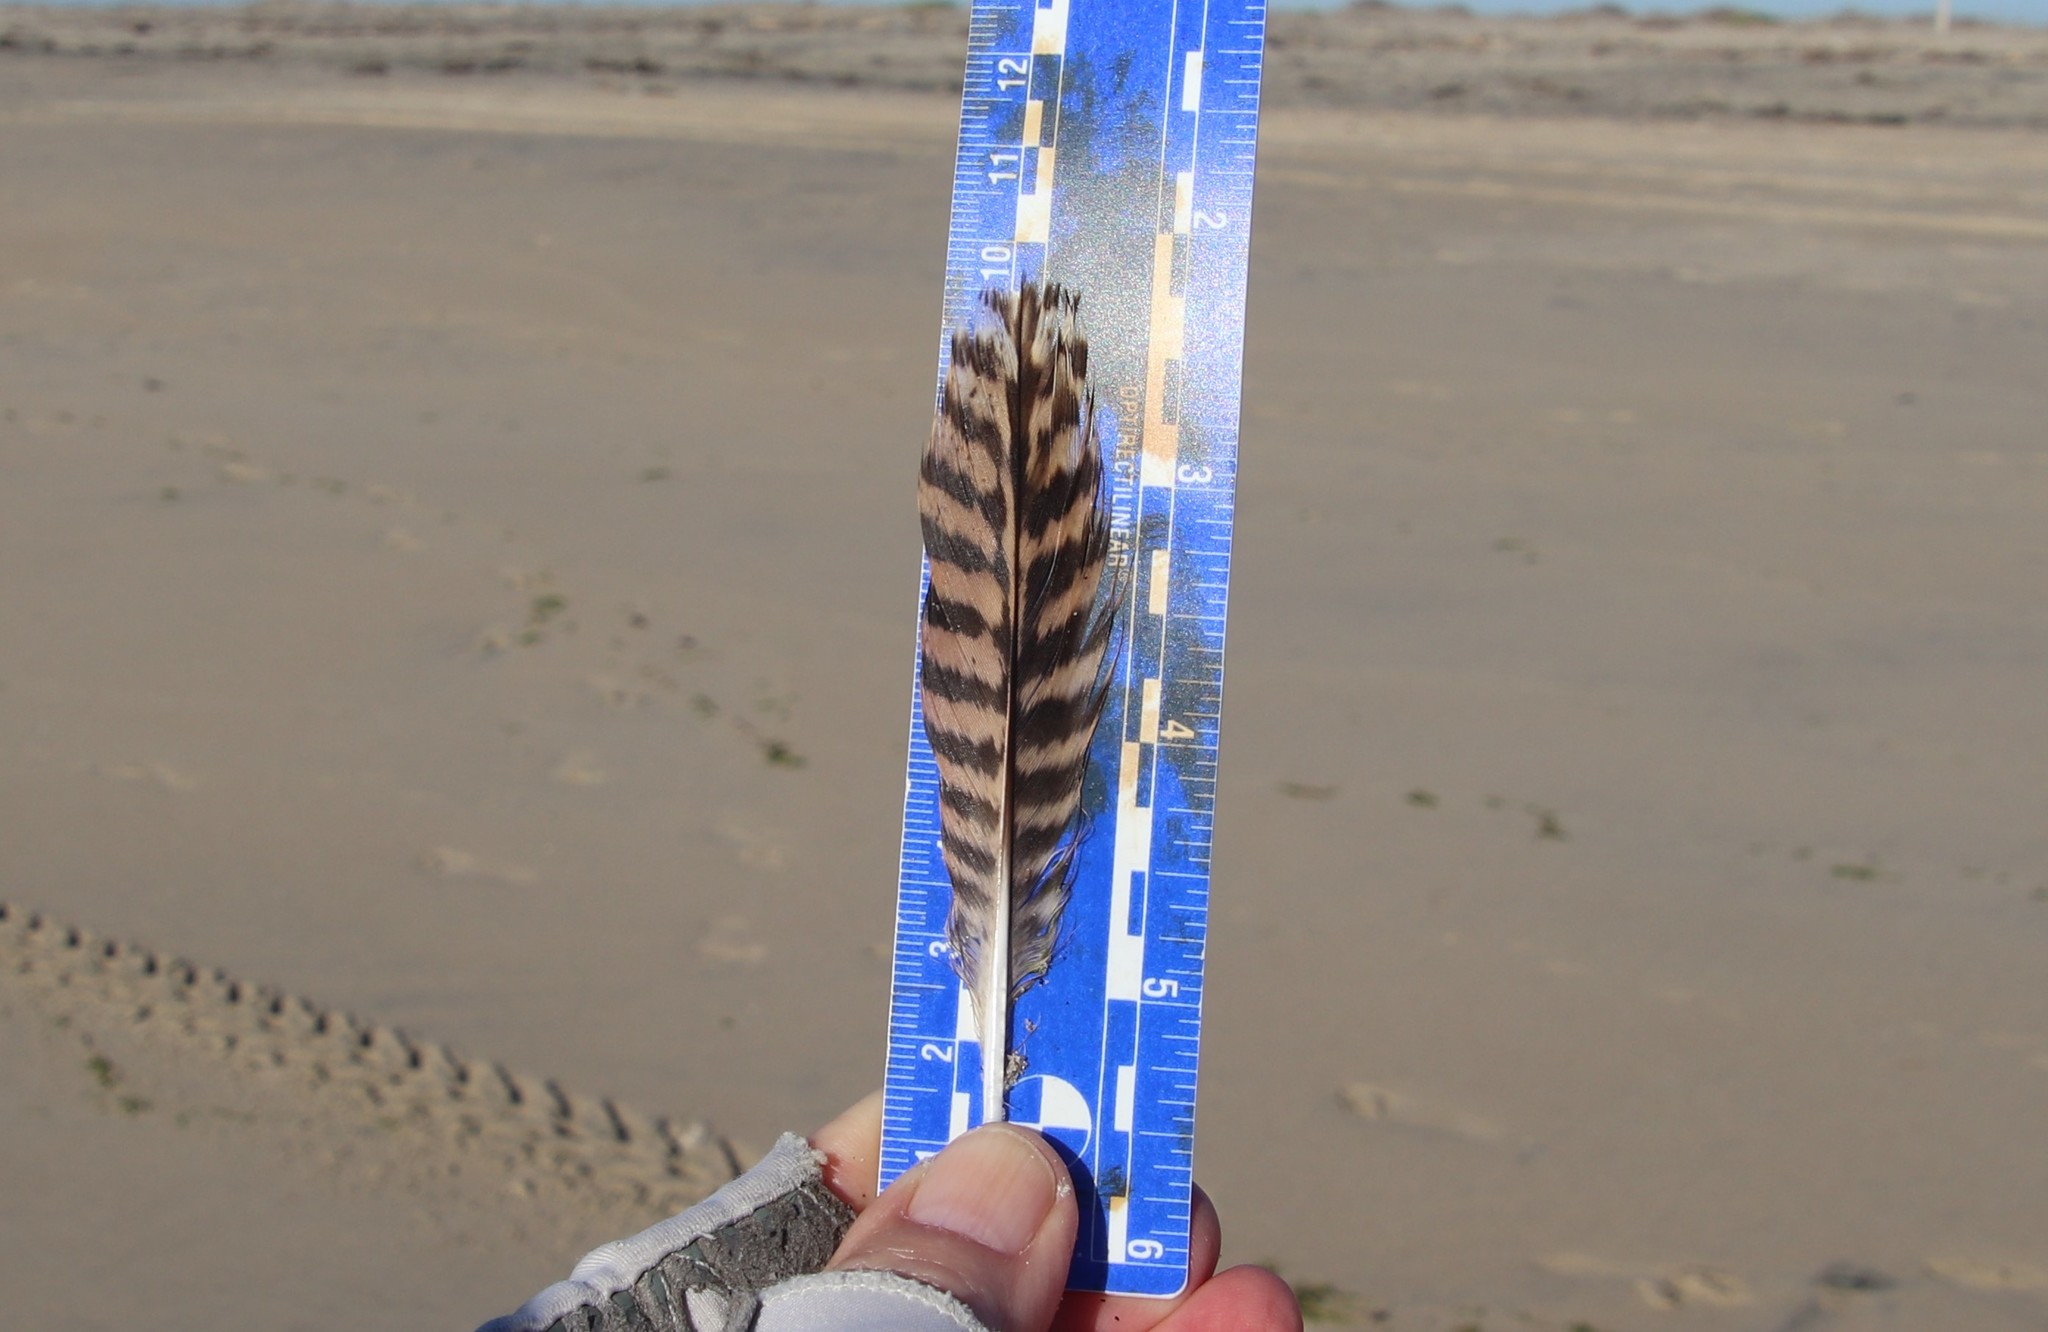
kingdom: Animalia
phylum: Chordata
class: Aves
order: Charadriiformes
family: Scolopacidae
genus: Limosa
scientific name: Limosa fedoa
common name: Marbled godwit
